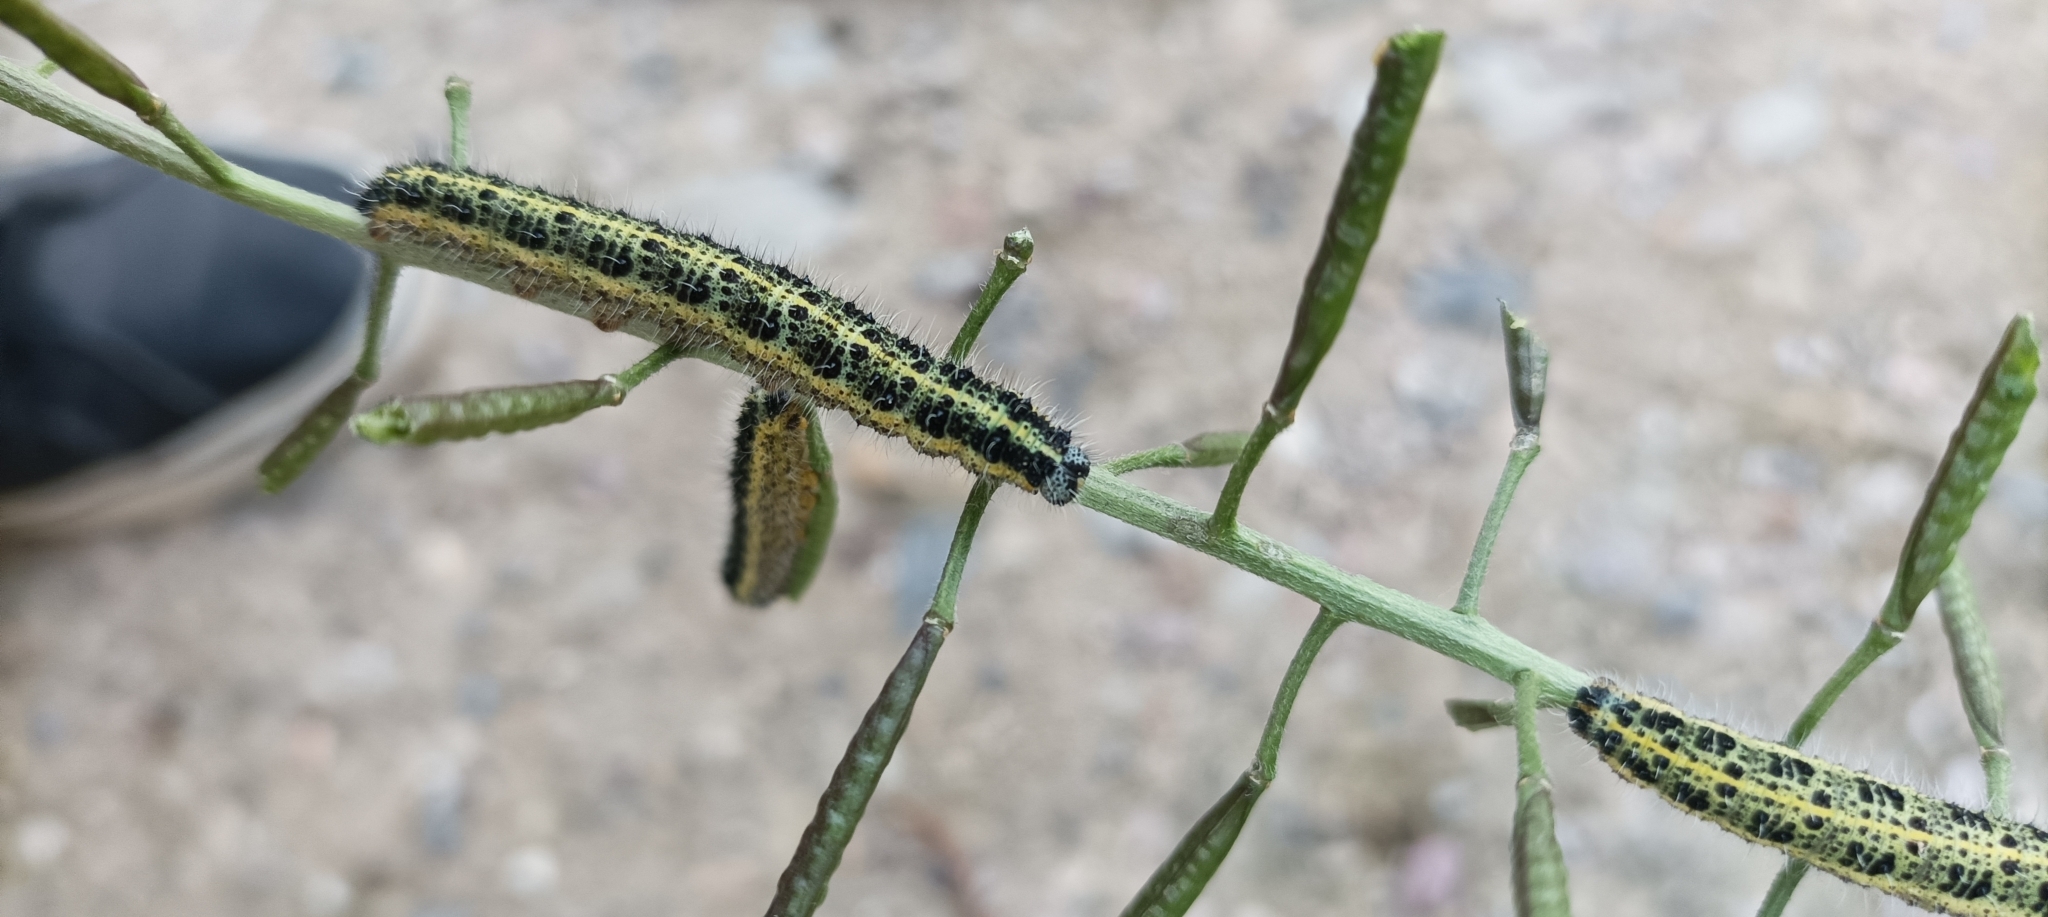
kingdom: Animalia
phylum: Arthropoda
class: Insecta
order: Lepidoptera
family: Pieridae
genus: Pieris
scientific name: Pieris brassicae
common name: Large white
